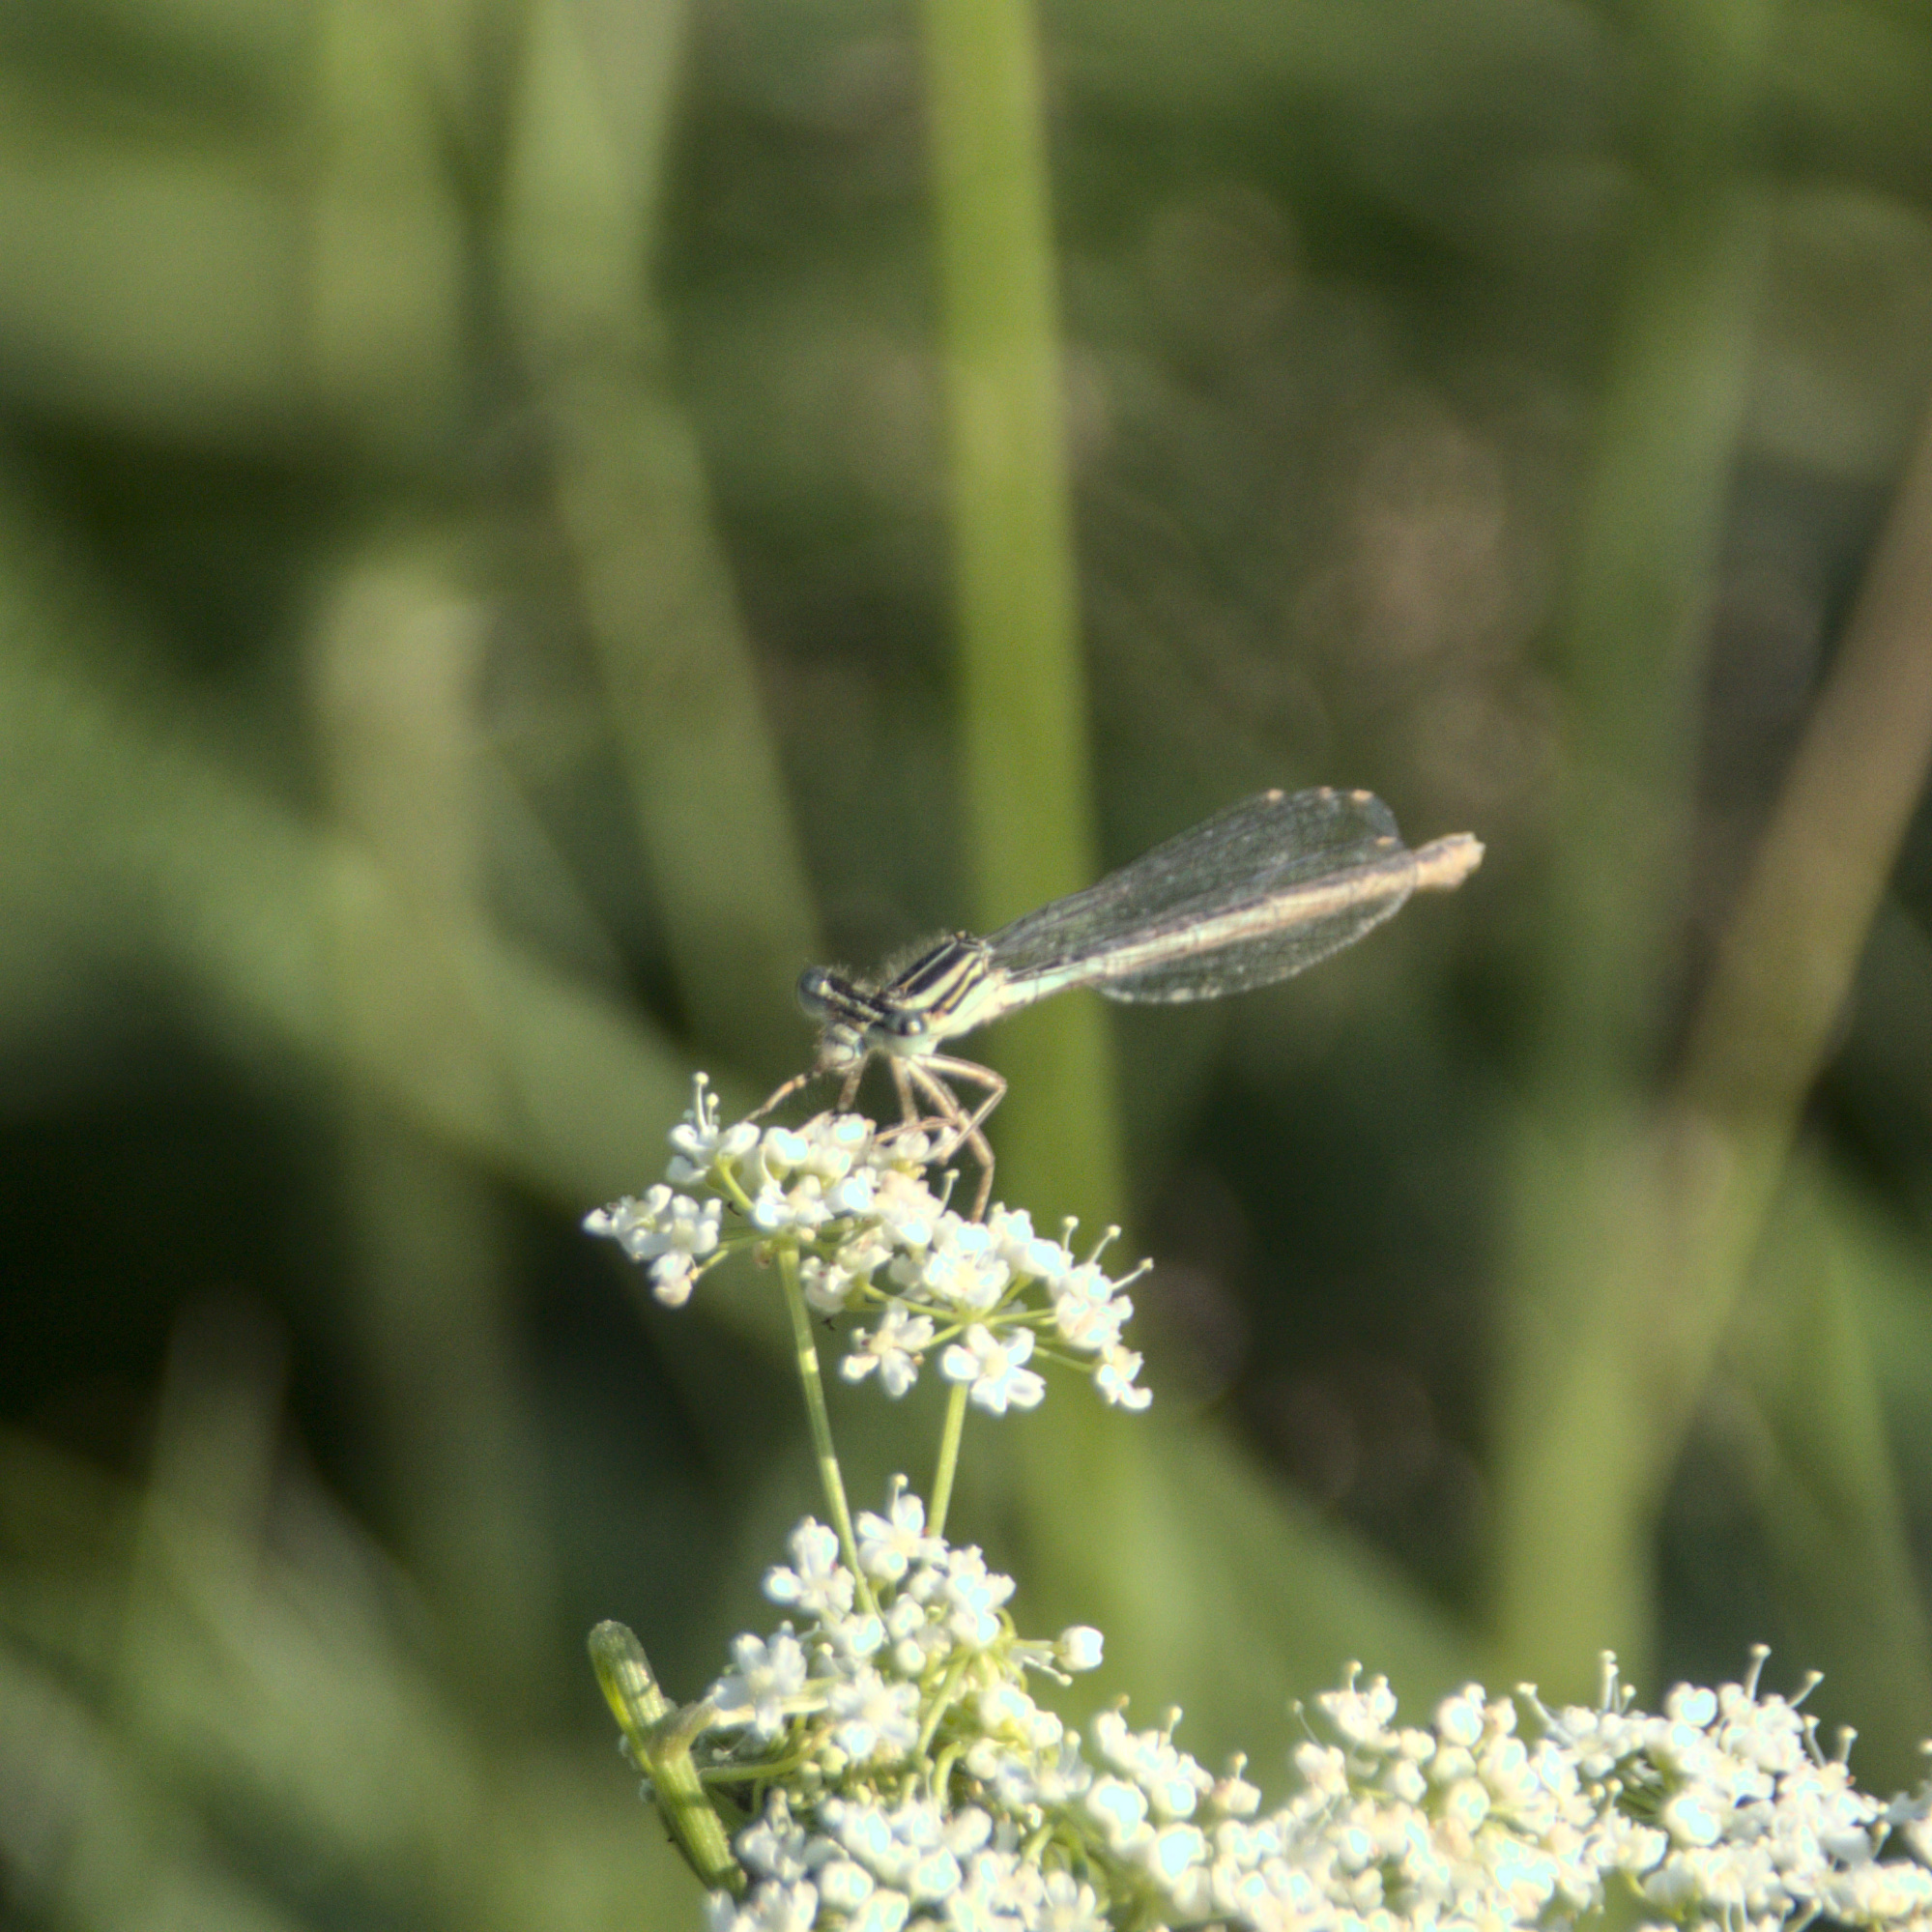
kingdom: Animalia
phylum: Arthropoda
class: Insecta
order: Odonata
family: Platycnemididae
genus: Platycnemis
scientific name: Platycnemis pennipes
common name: White-legged damselfly
